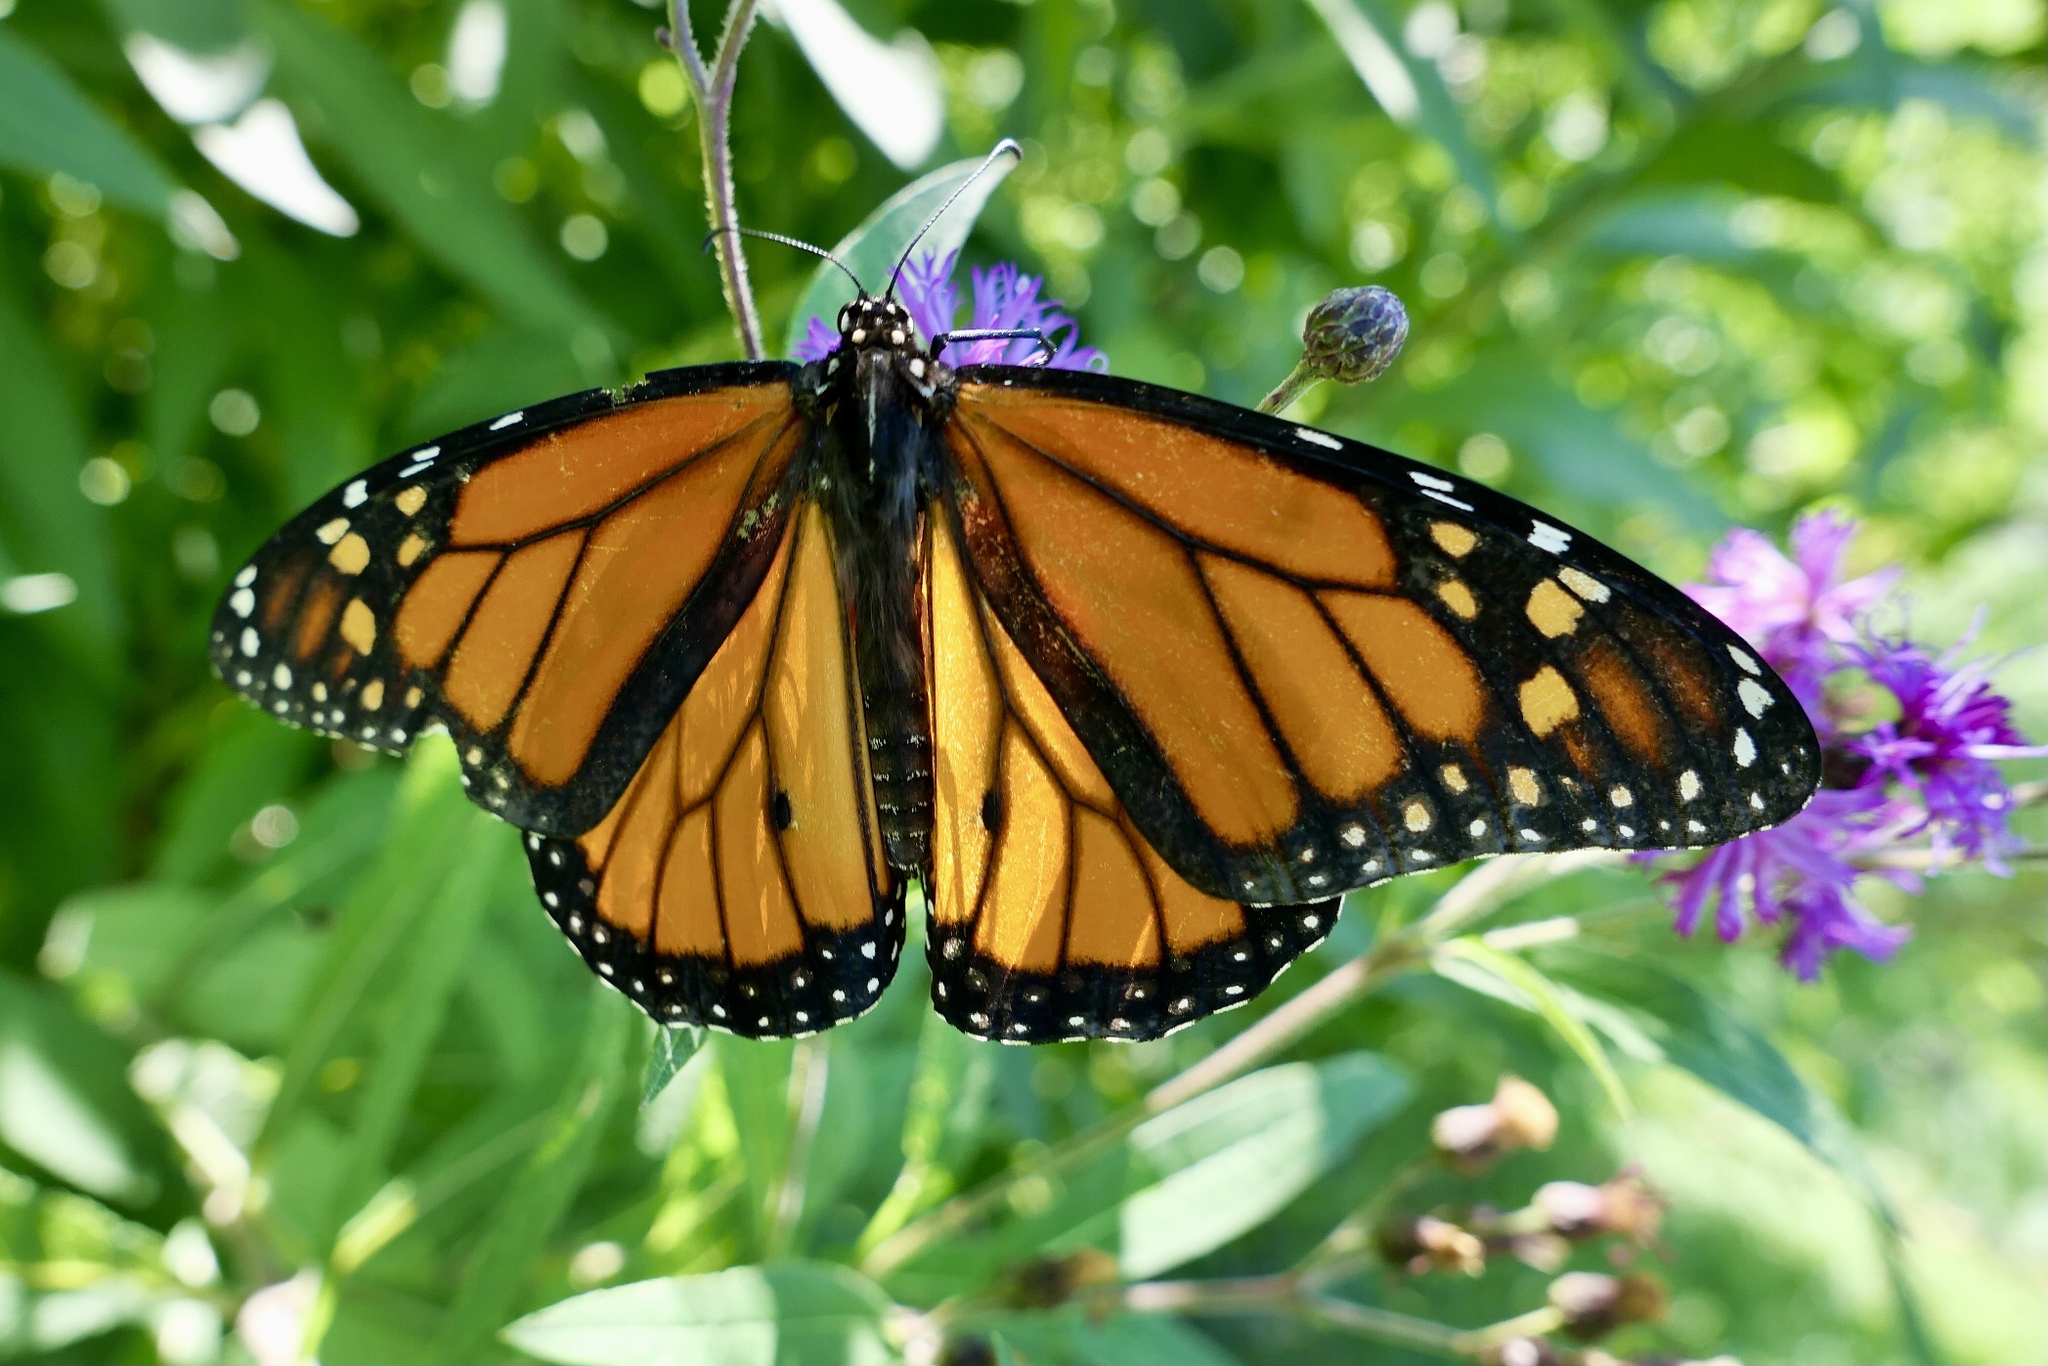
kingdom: Animalia
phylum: Arthropoda
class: Insecta
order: Lepidoptera
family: Nymphalidae
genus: Danaus
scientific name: Danaus plexippus
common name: Monarch
